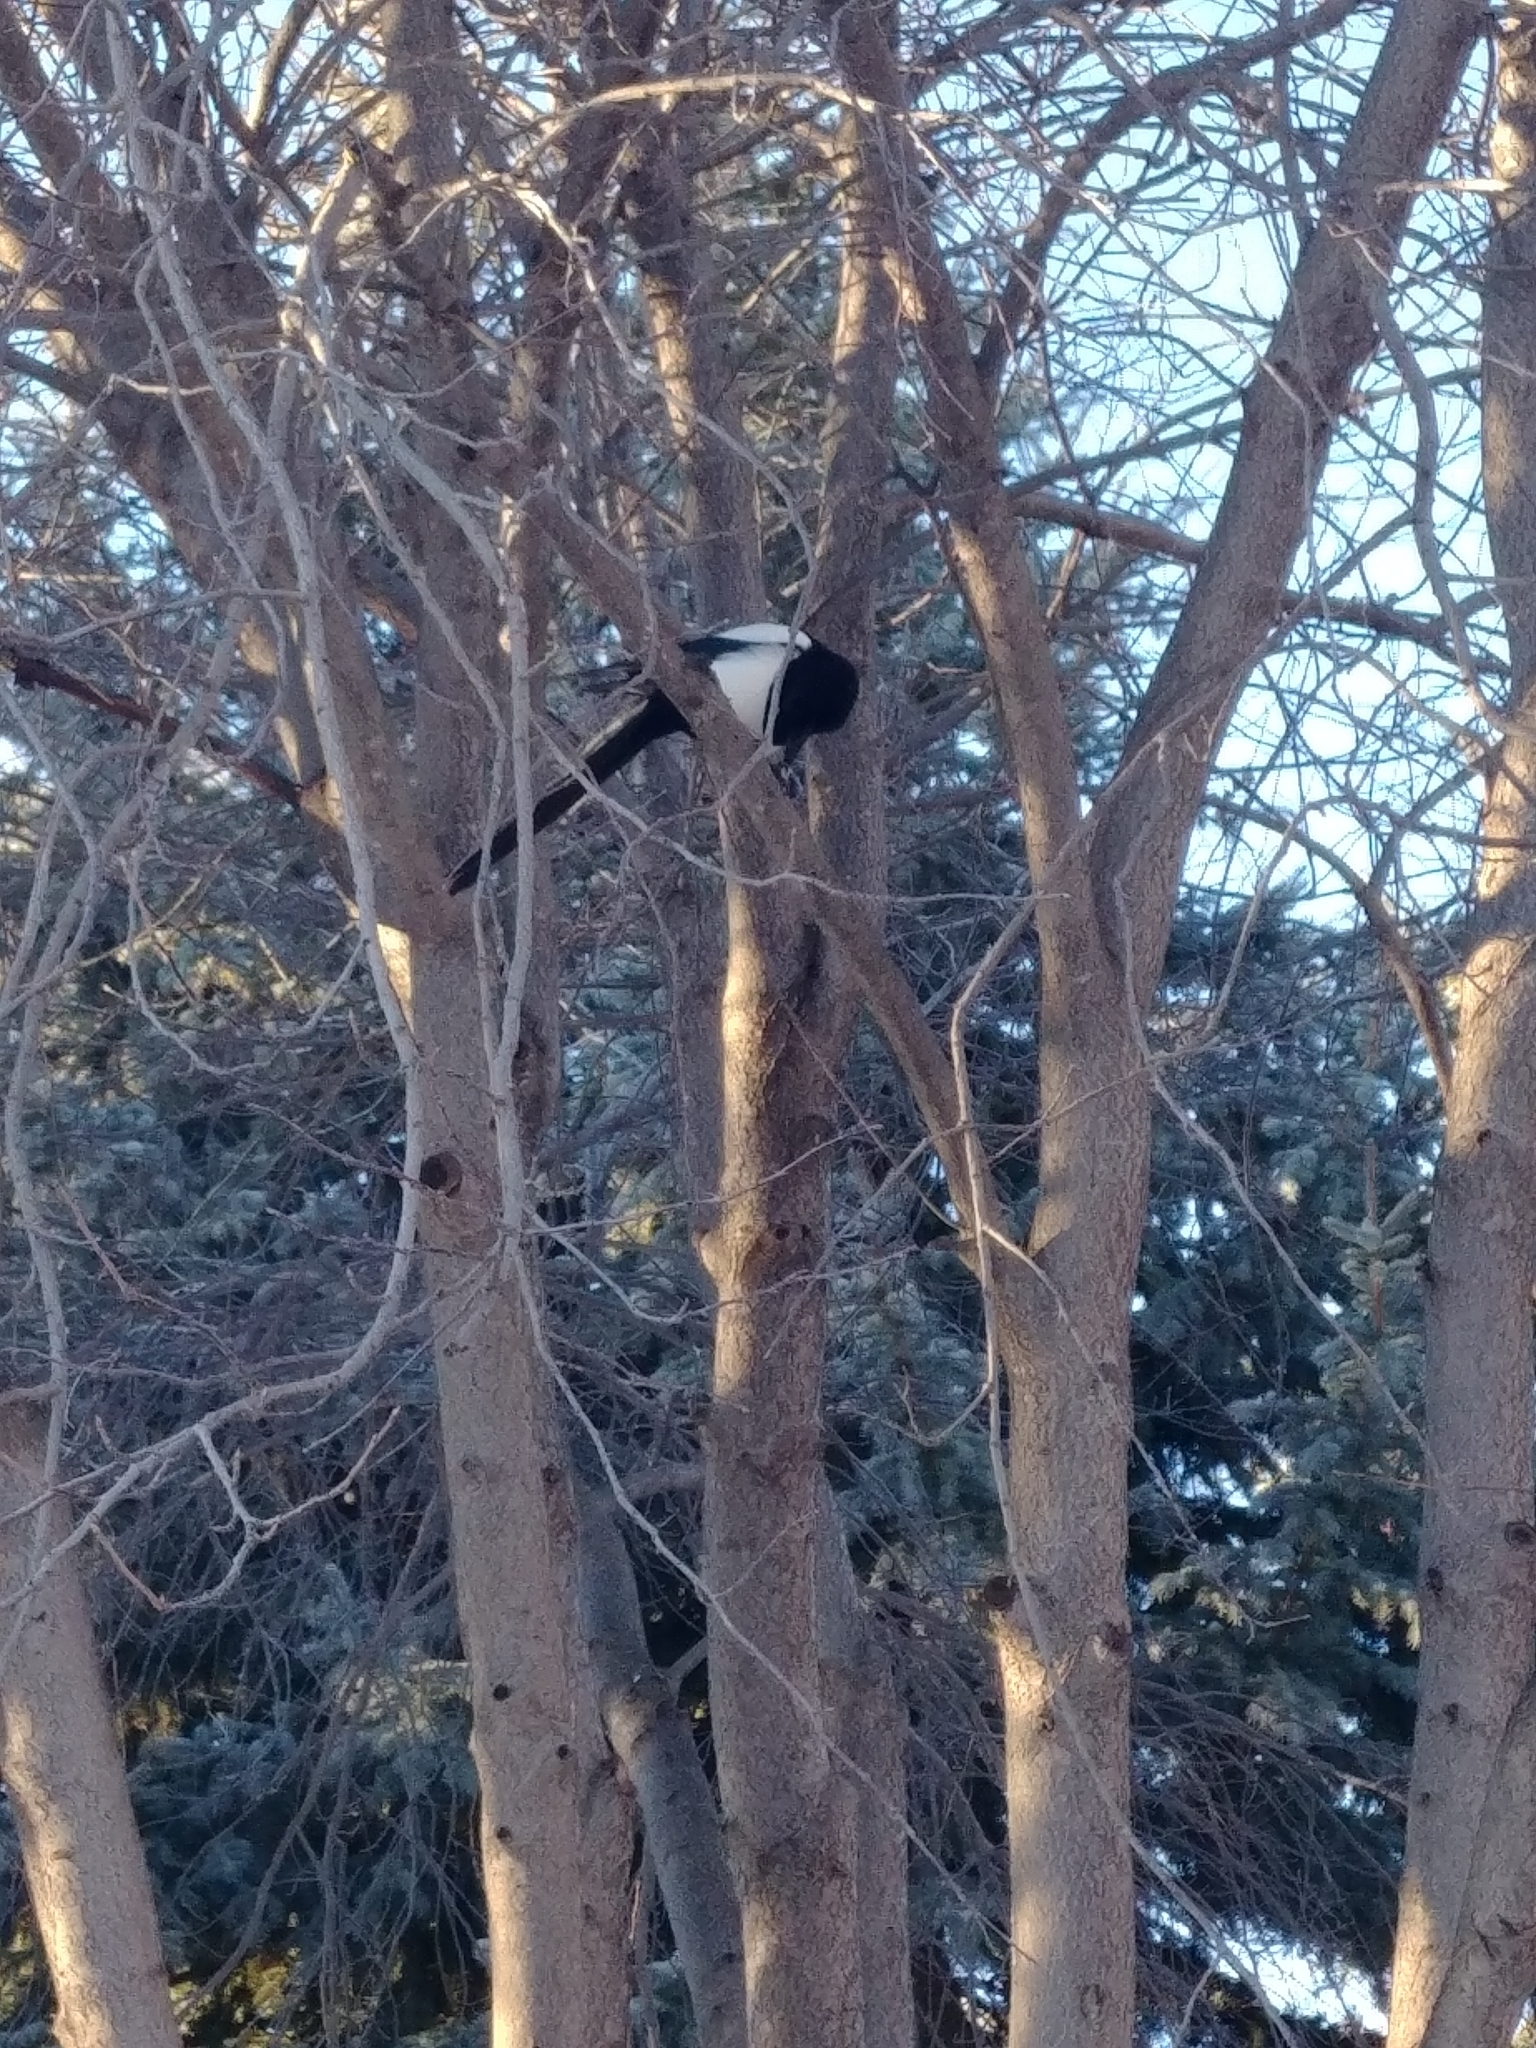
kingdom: Animalia
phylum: Chordata
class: Aves
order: Passeriformes
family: Corvidae
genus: Pica
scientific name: Pica hudsonia
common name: Black-billed magpie
